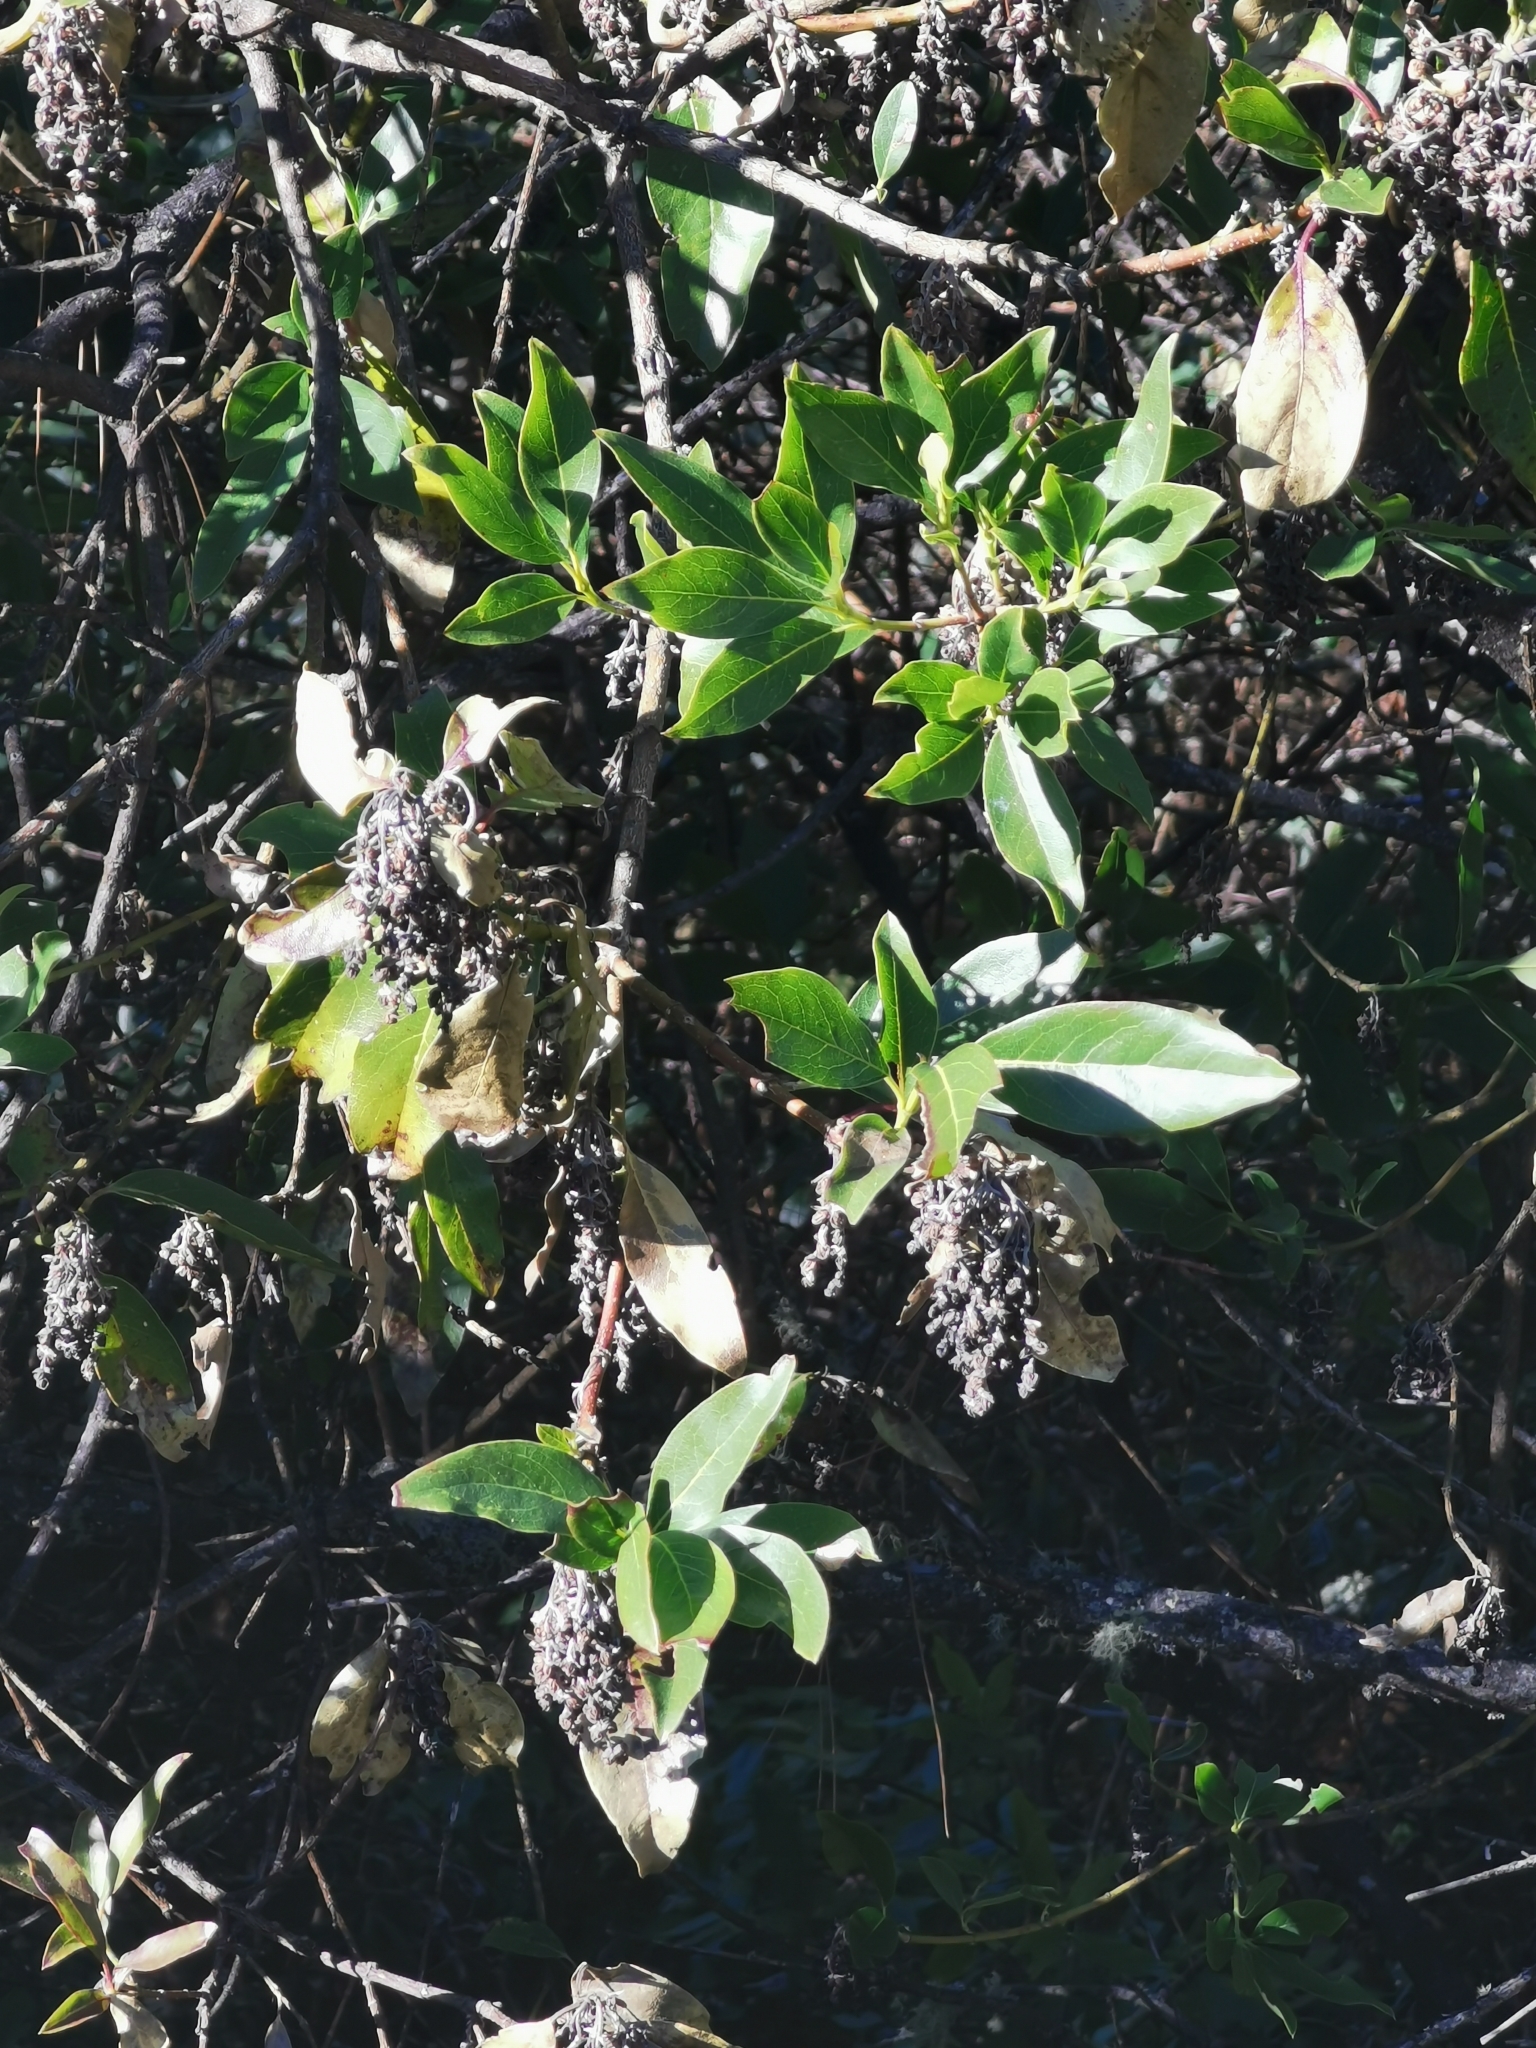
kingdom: Plantae
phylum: Tracheophyta
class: Magnoliopsida
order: Garryales
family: Garryaceae
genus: Garrya
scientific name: Garrya laurifolia
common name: Cuachichic
